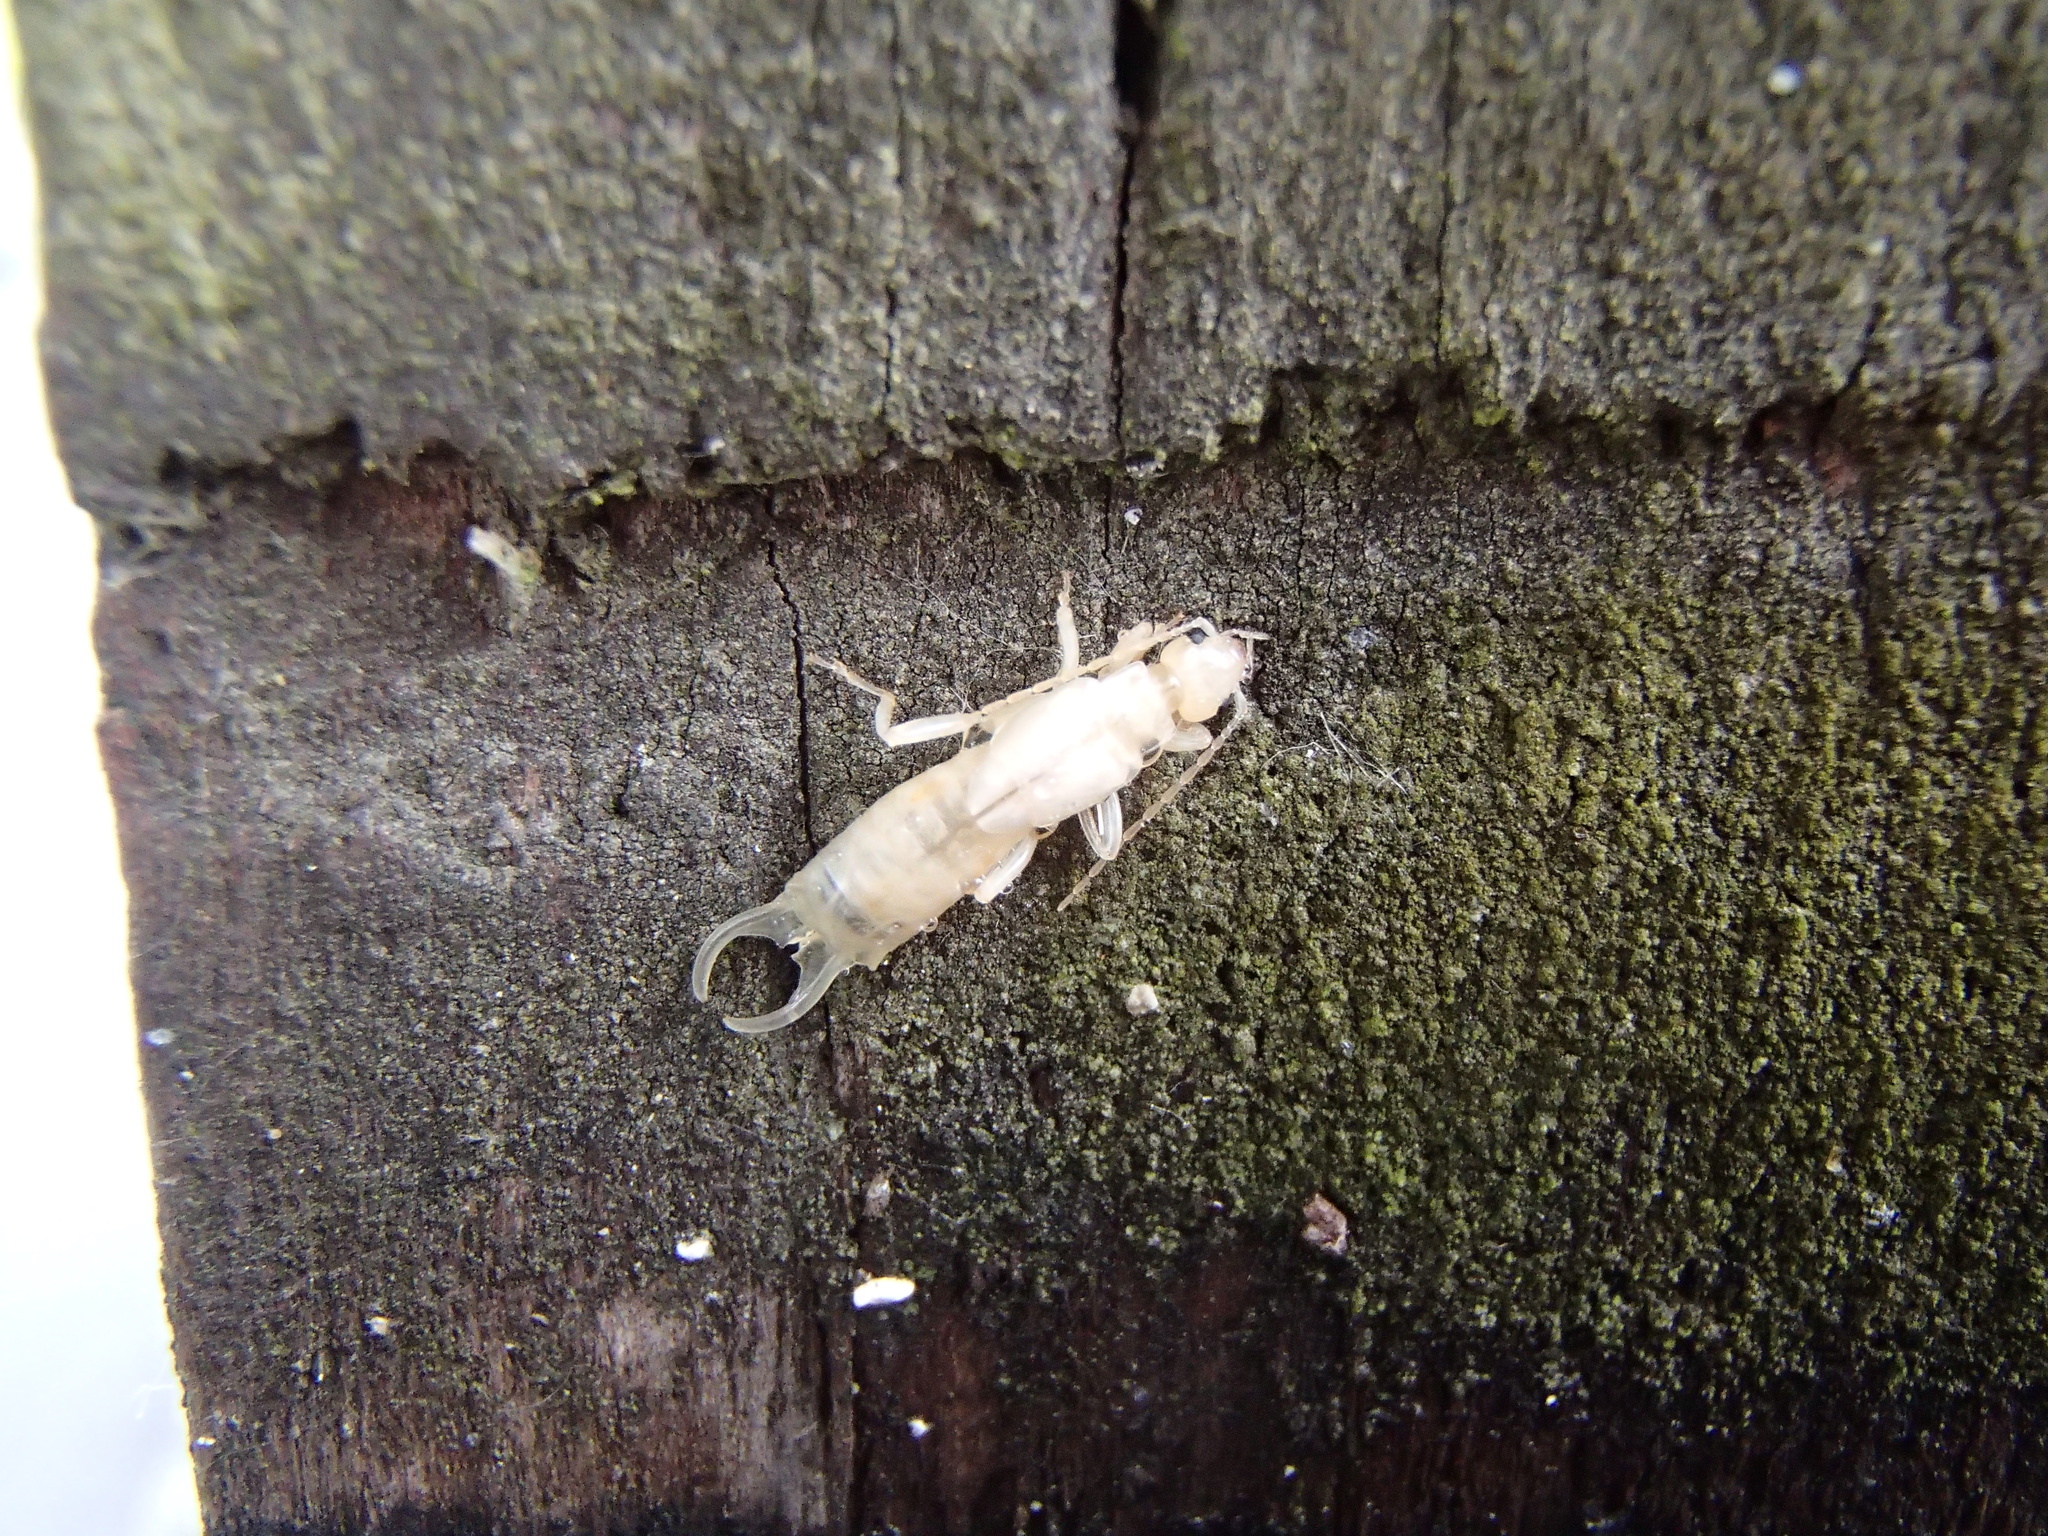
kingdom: Animalia
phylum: Arthropoda
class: Insecta
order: Dermaptera
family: Forficulidae
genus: Forficula
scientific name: Forficula
